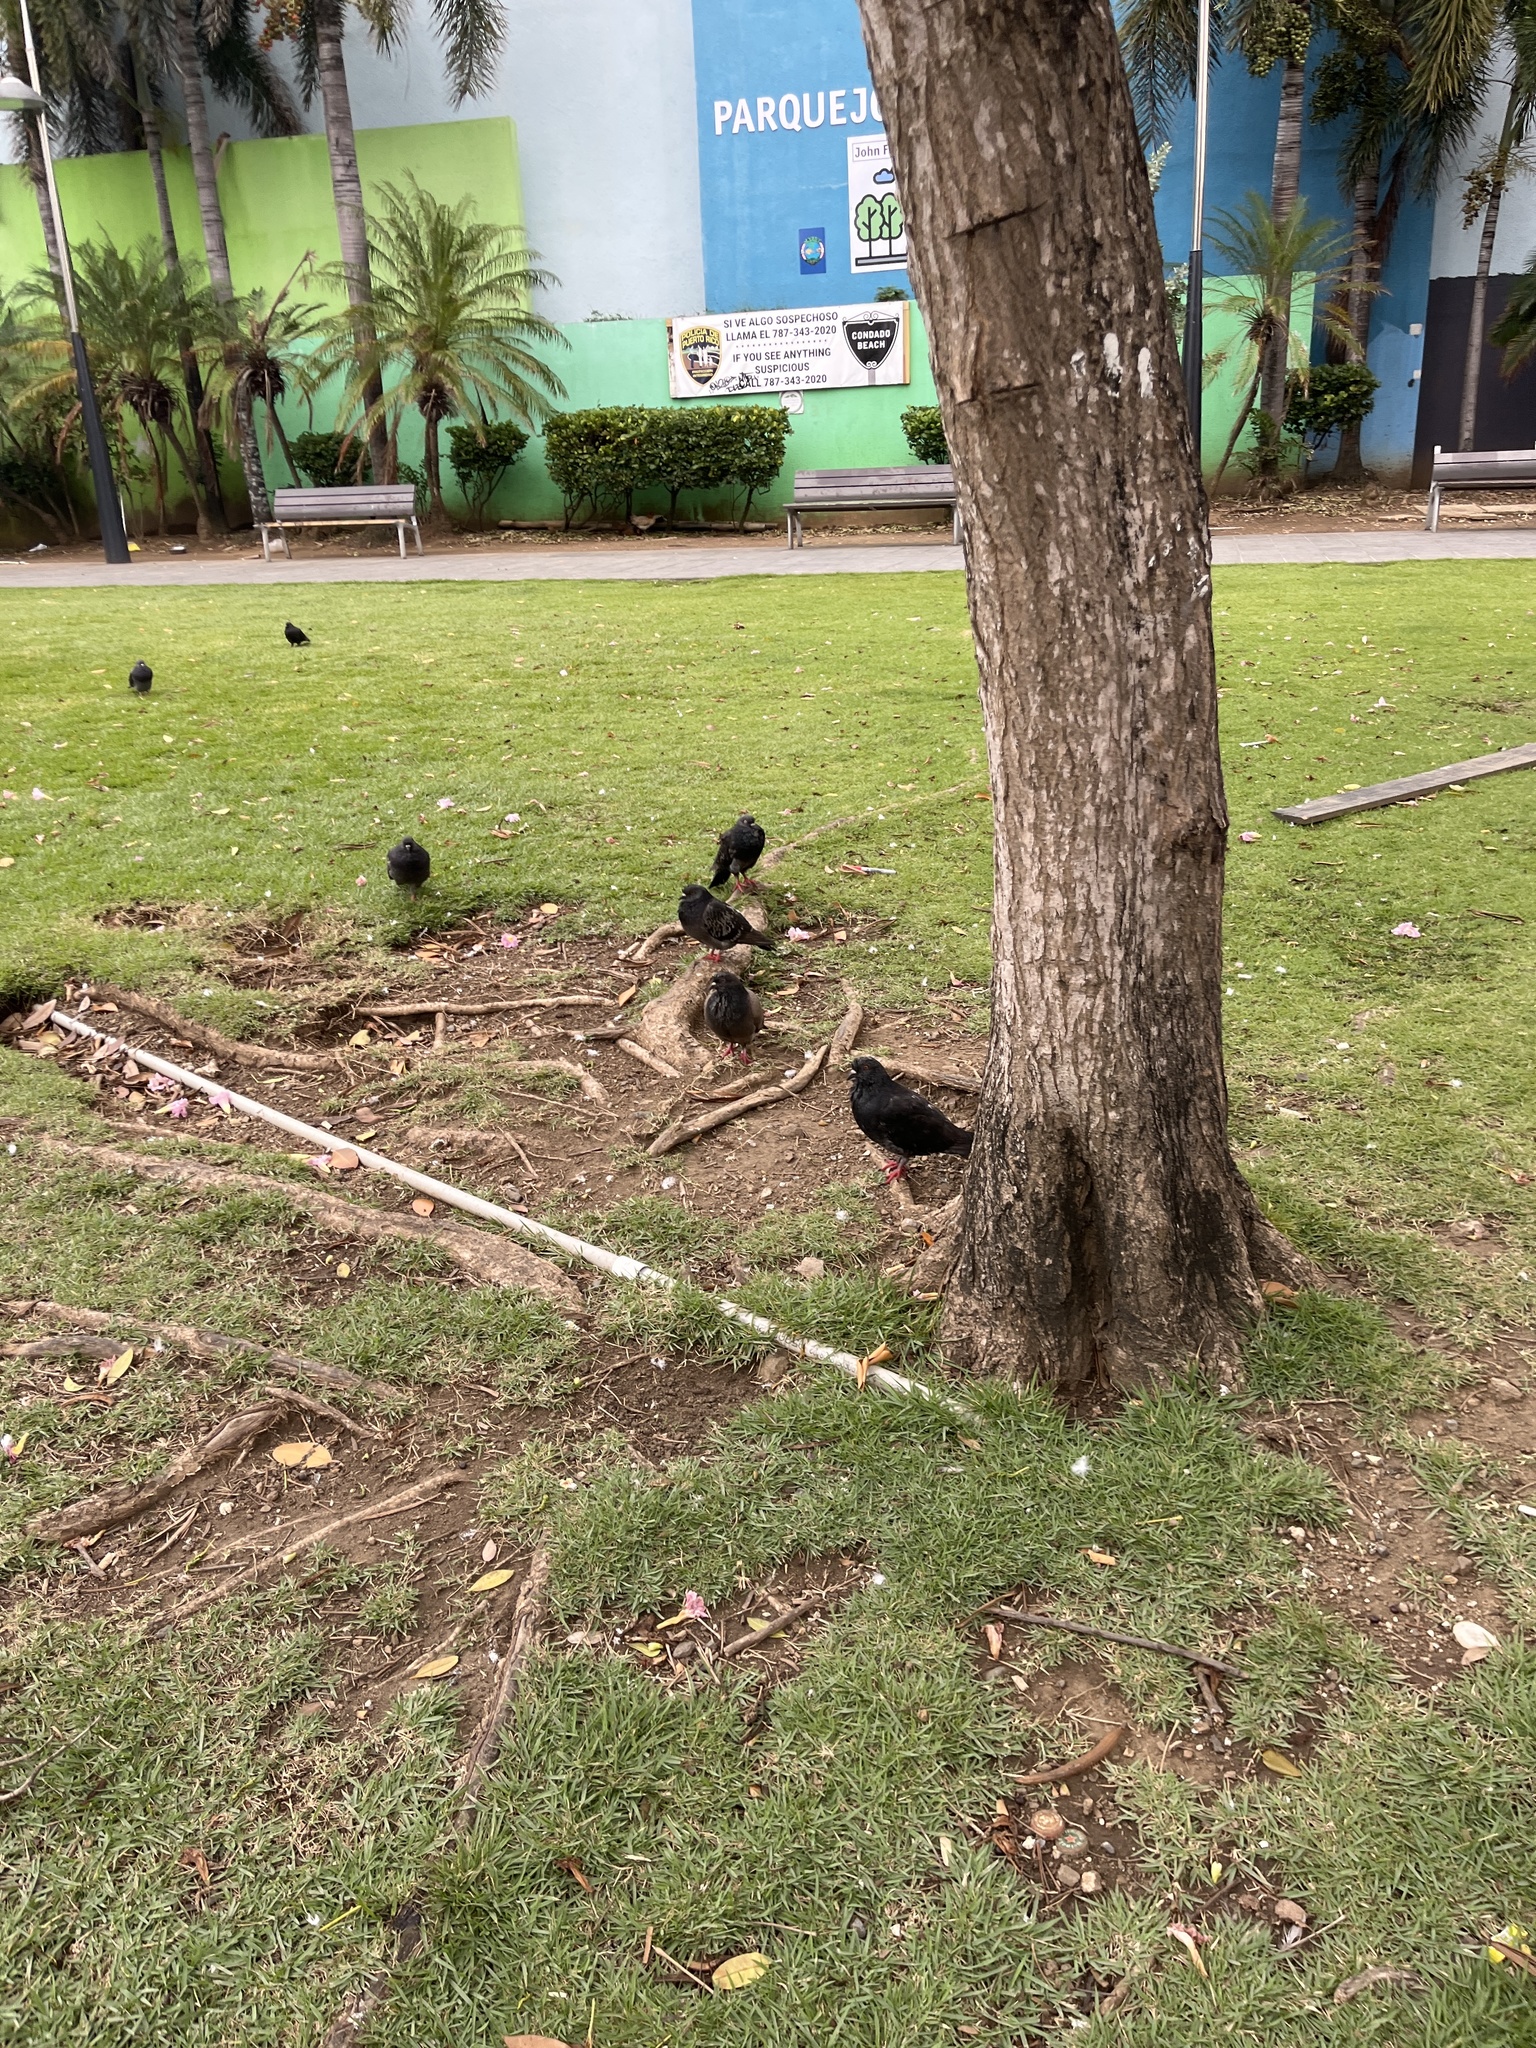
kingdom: Animalia
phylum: Chordata
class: Aves
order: Columbiformes
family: Columbidae
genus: Columba
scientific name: Columba livia
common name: Rock pigeon
